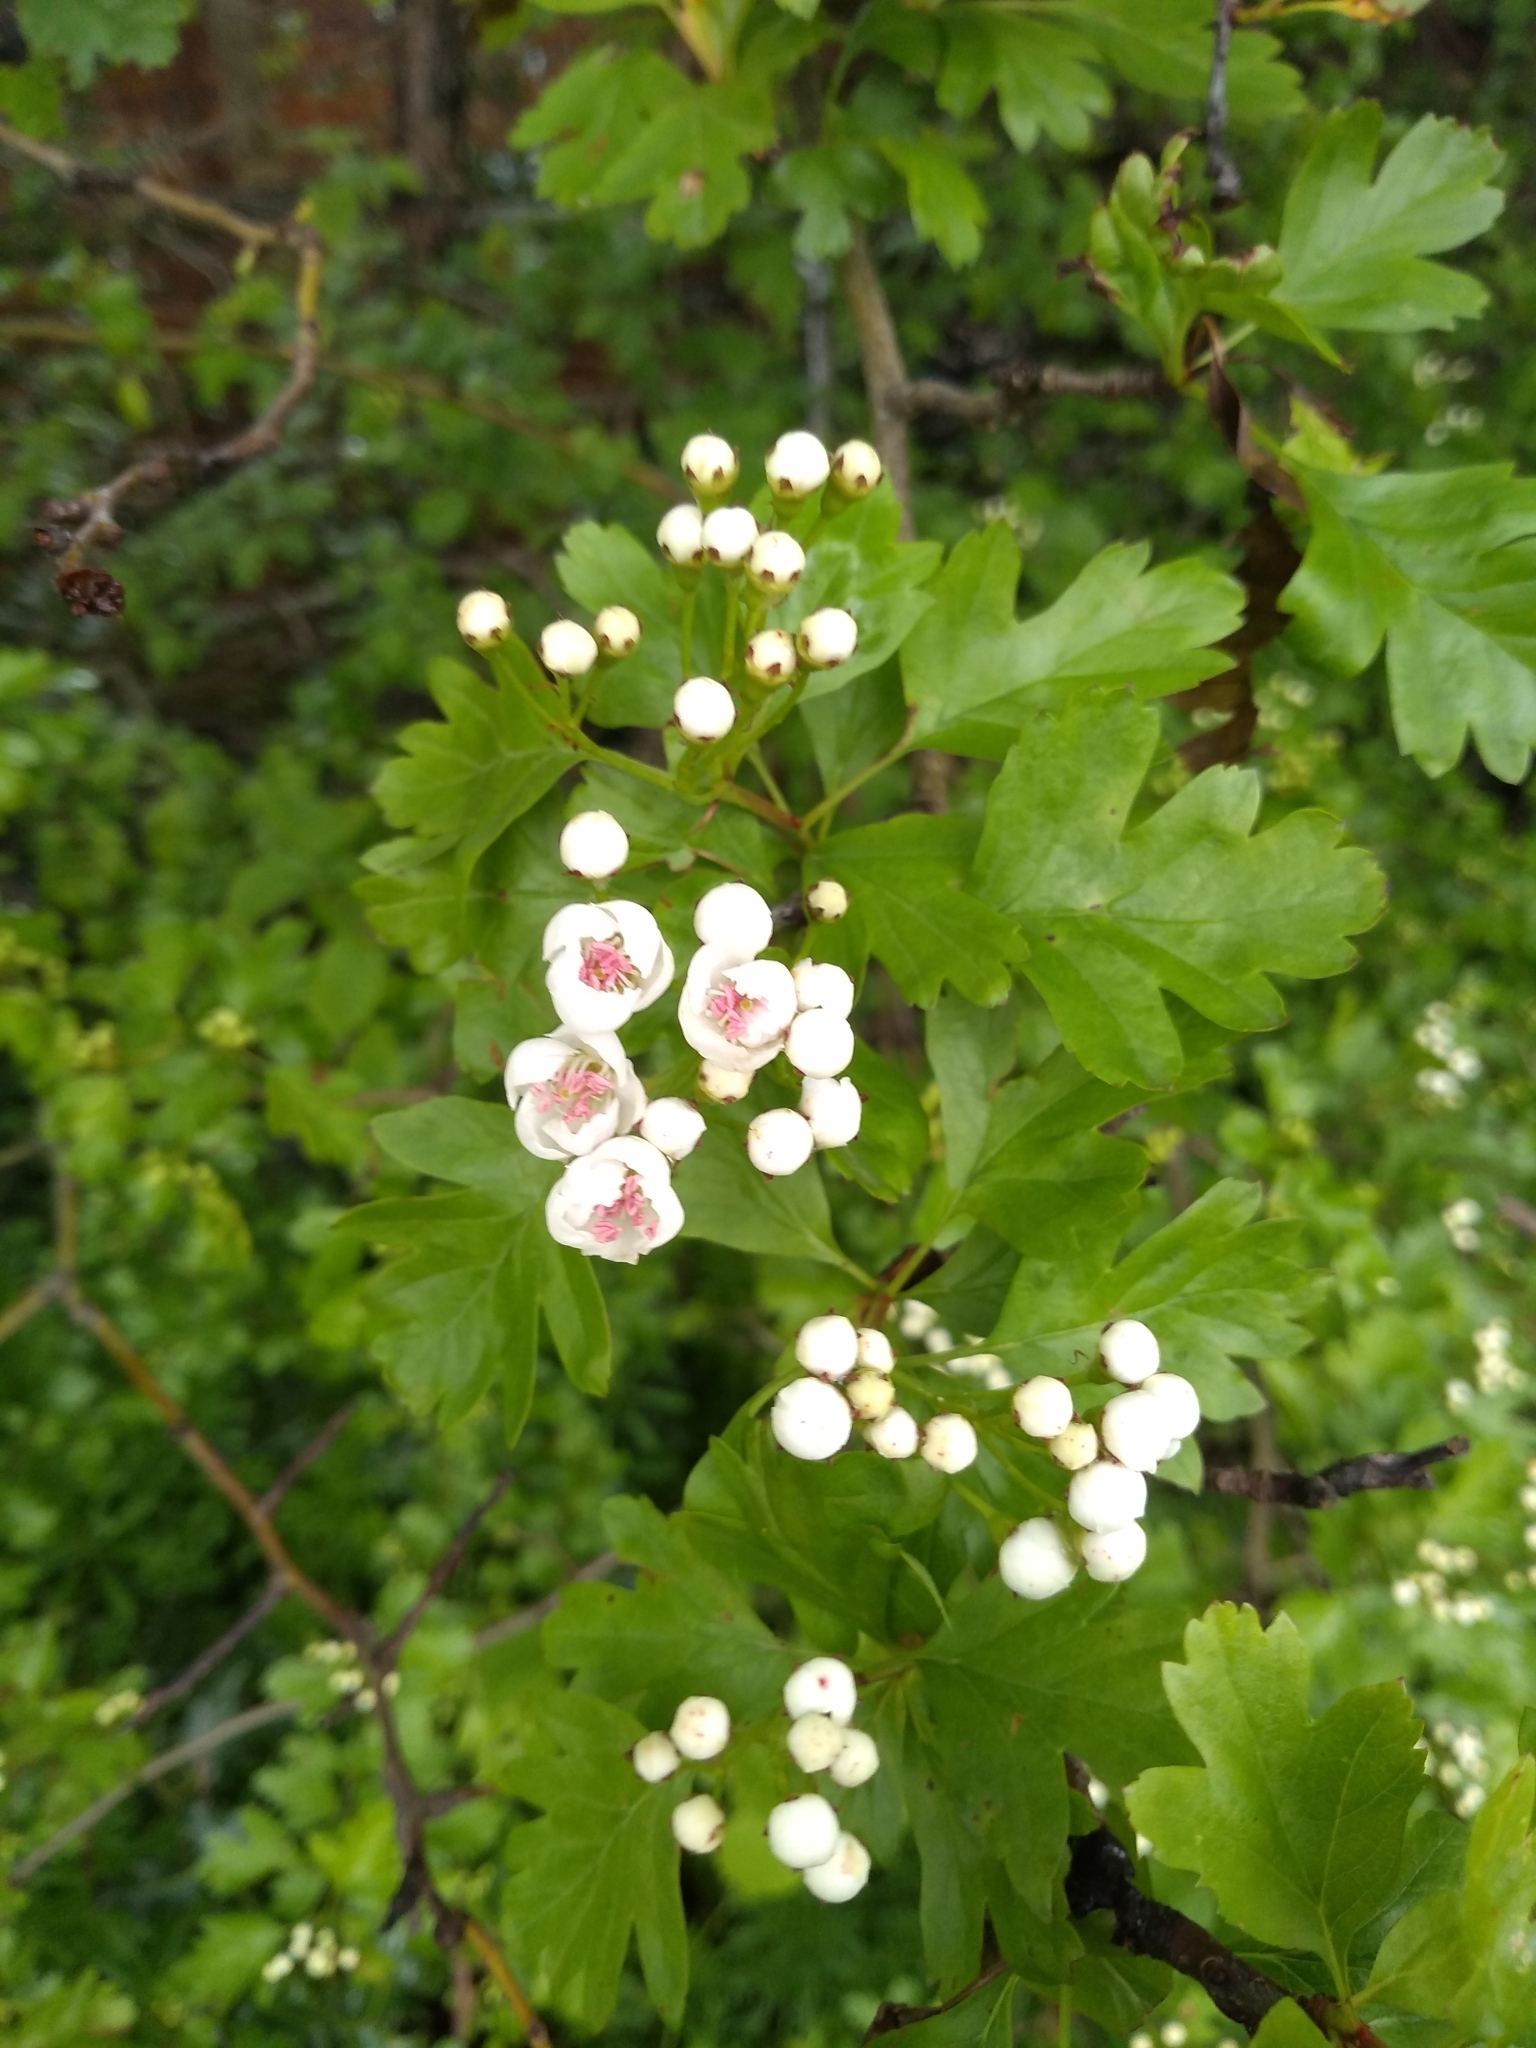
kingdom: Plantae
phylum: Tracheophyta
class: Magnoliopsida
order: Rosales
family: Rosaceae
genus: Crataegus
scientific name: Crataegus monogyna
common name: Hawthorn
